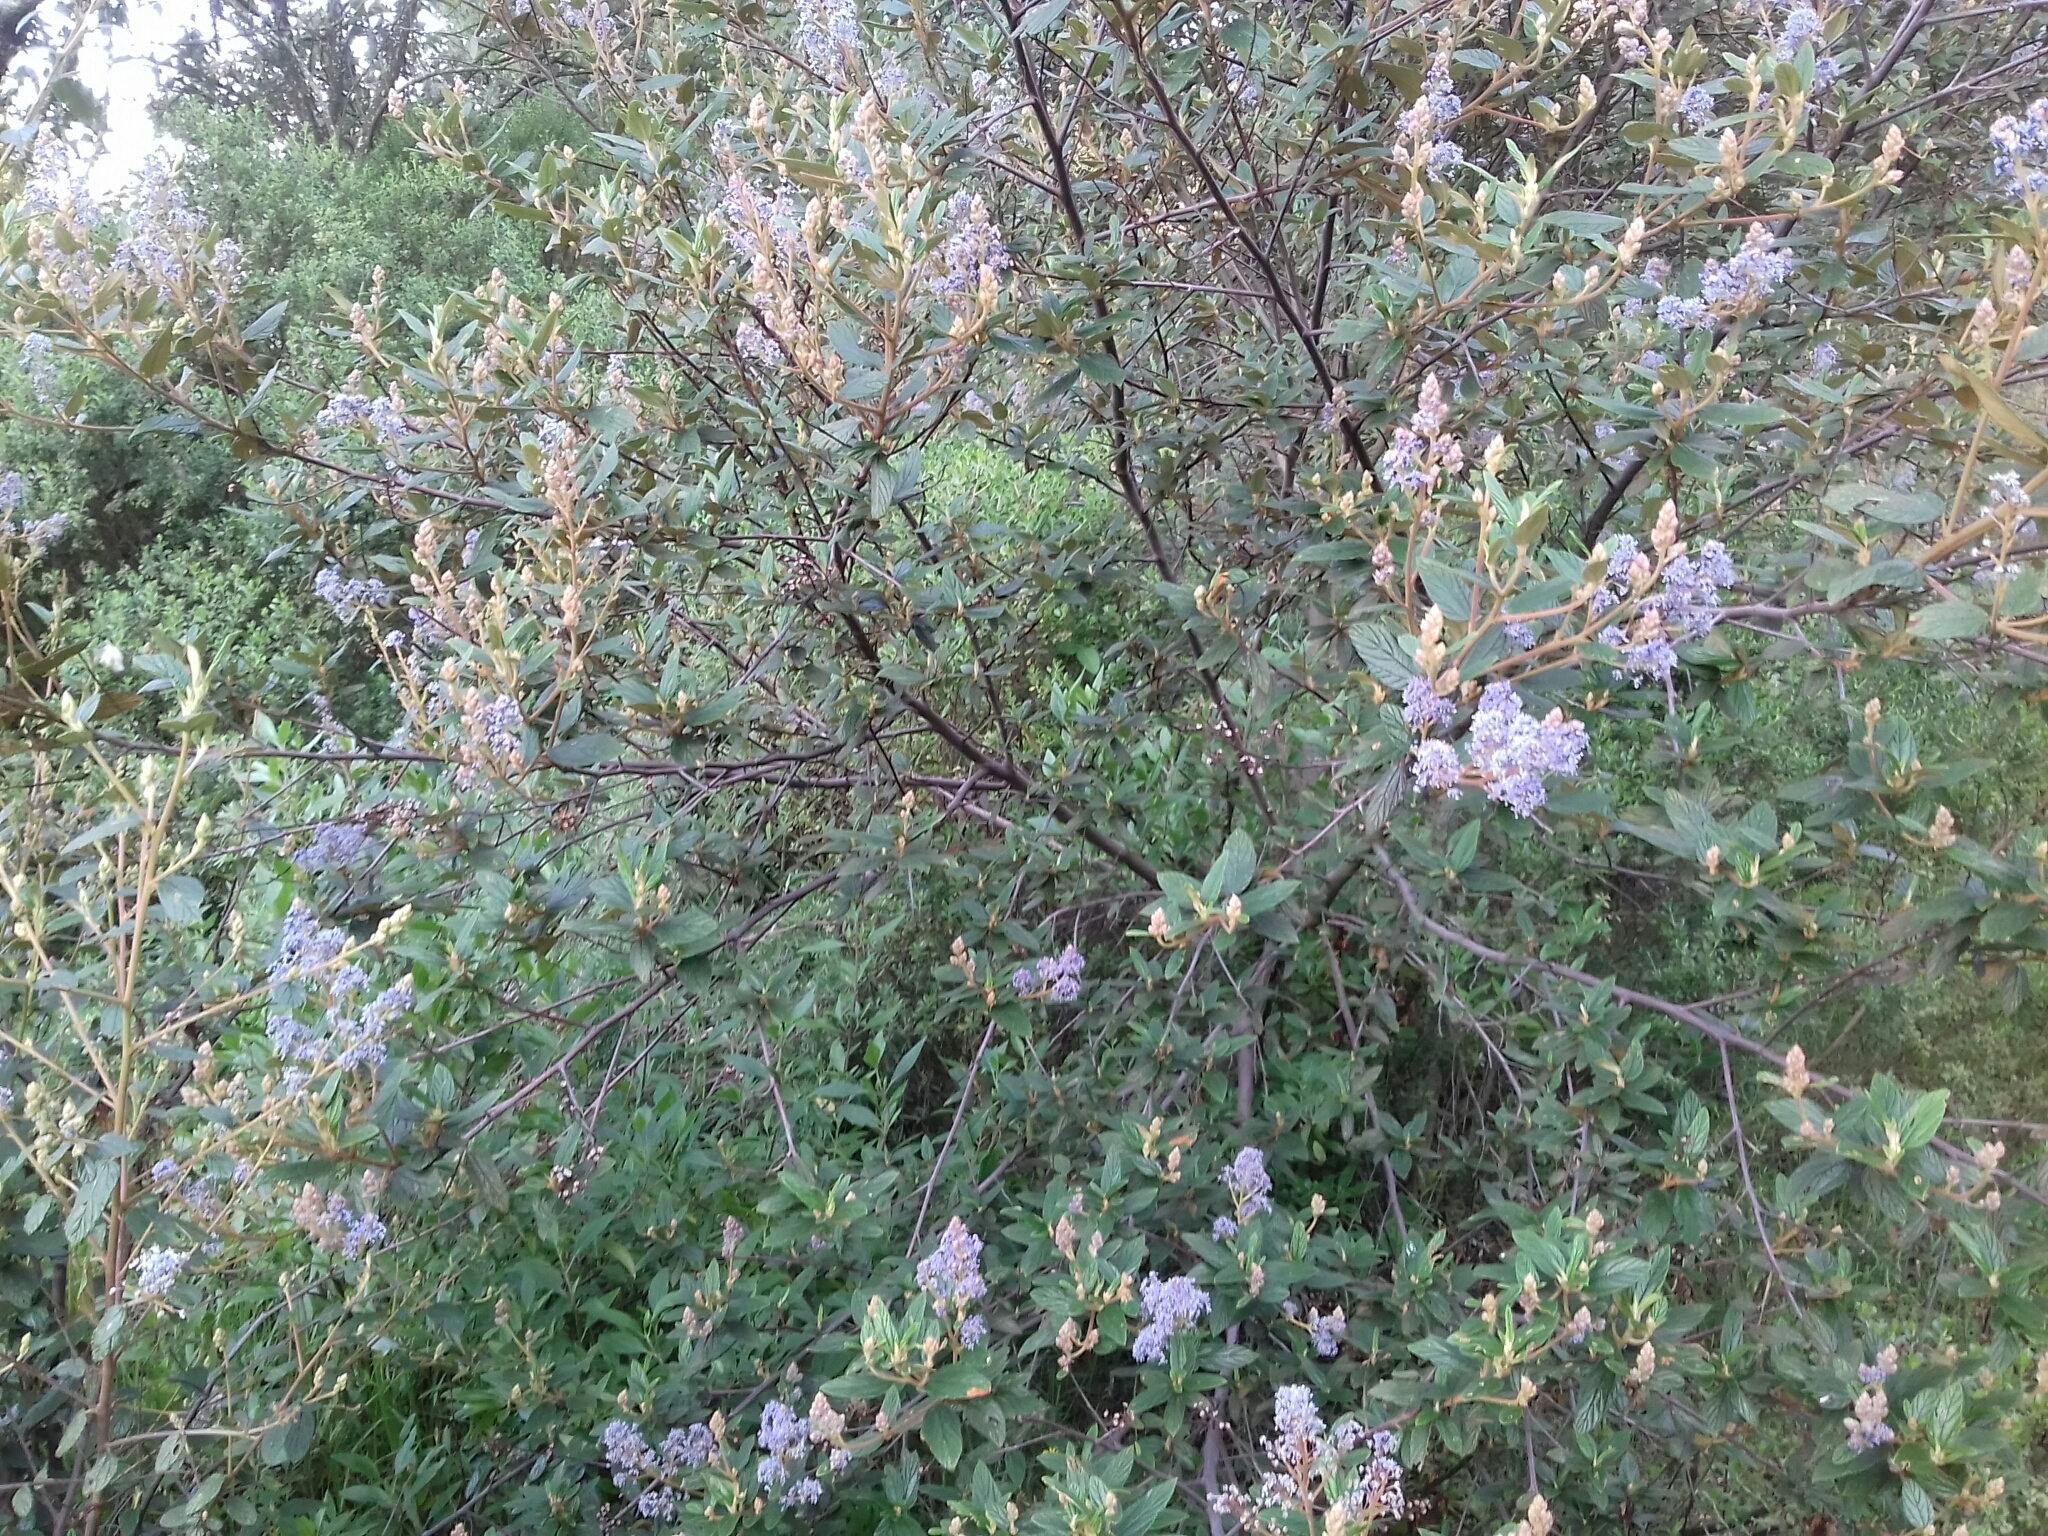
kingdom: Plantae
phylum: Tracheophyta
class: Magnoliopsida
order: Rosales
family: Rhamnaceae
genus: Ceanothus
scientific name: Ceanothus caeruleus
